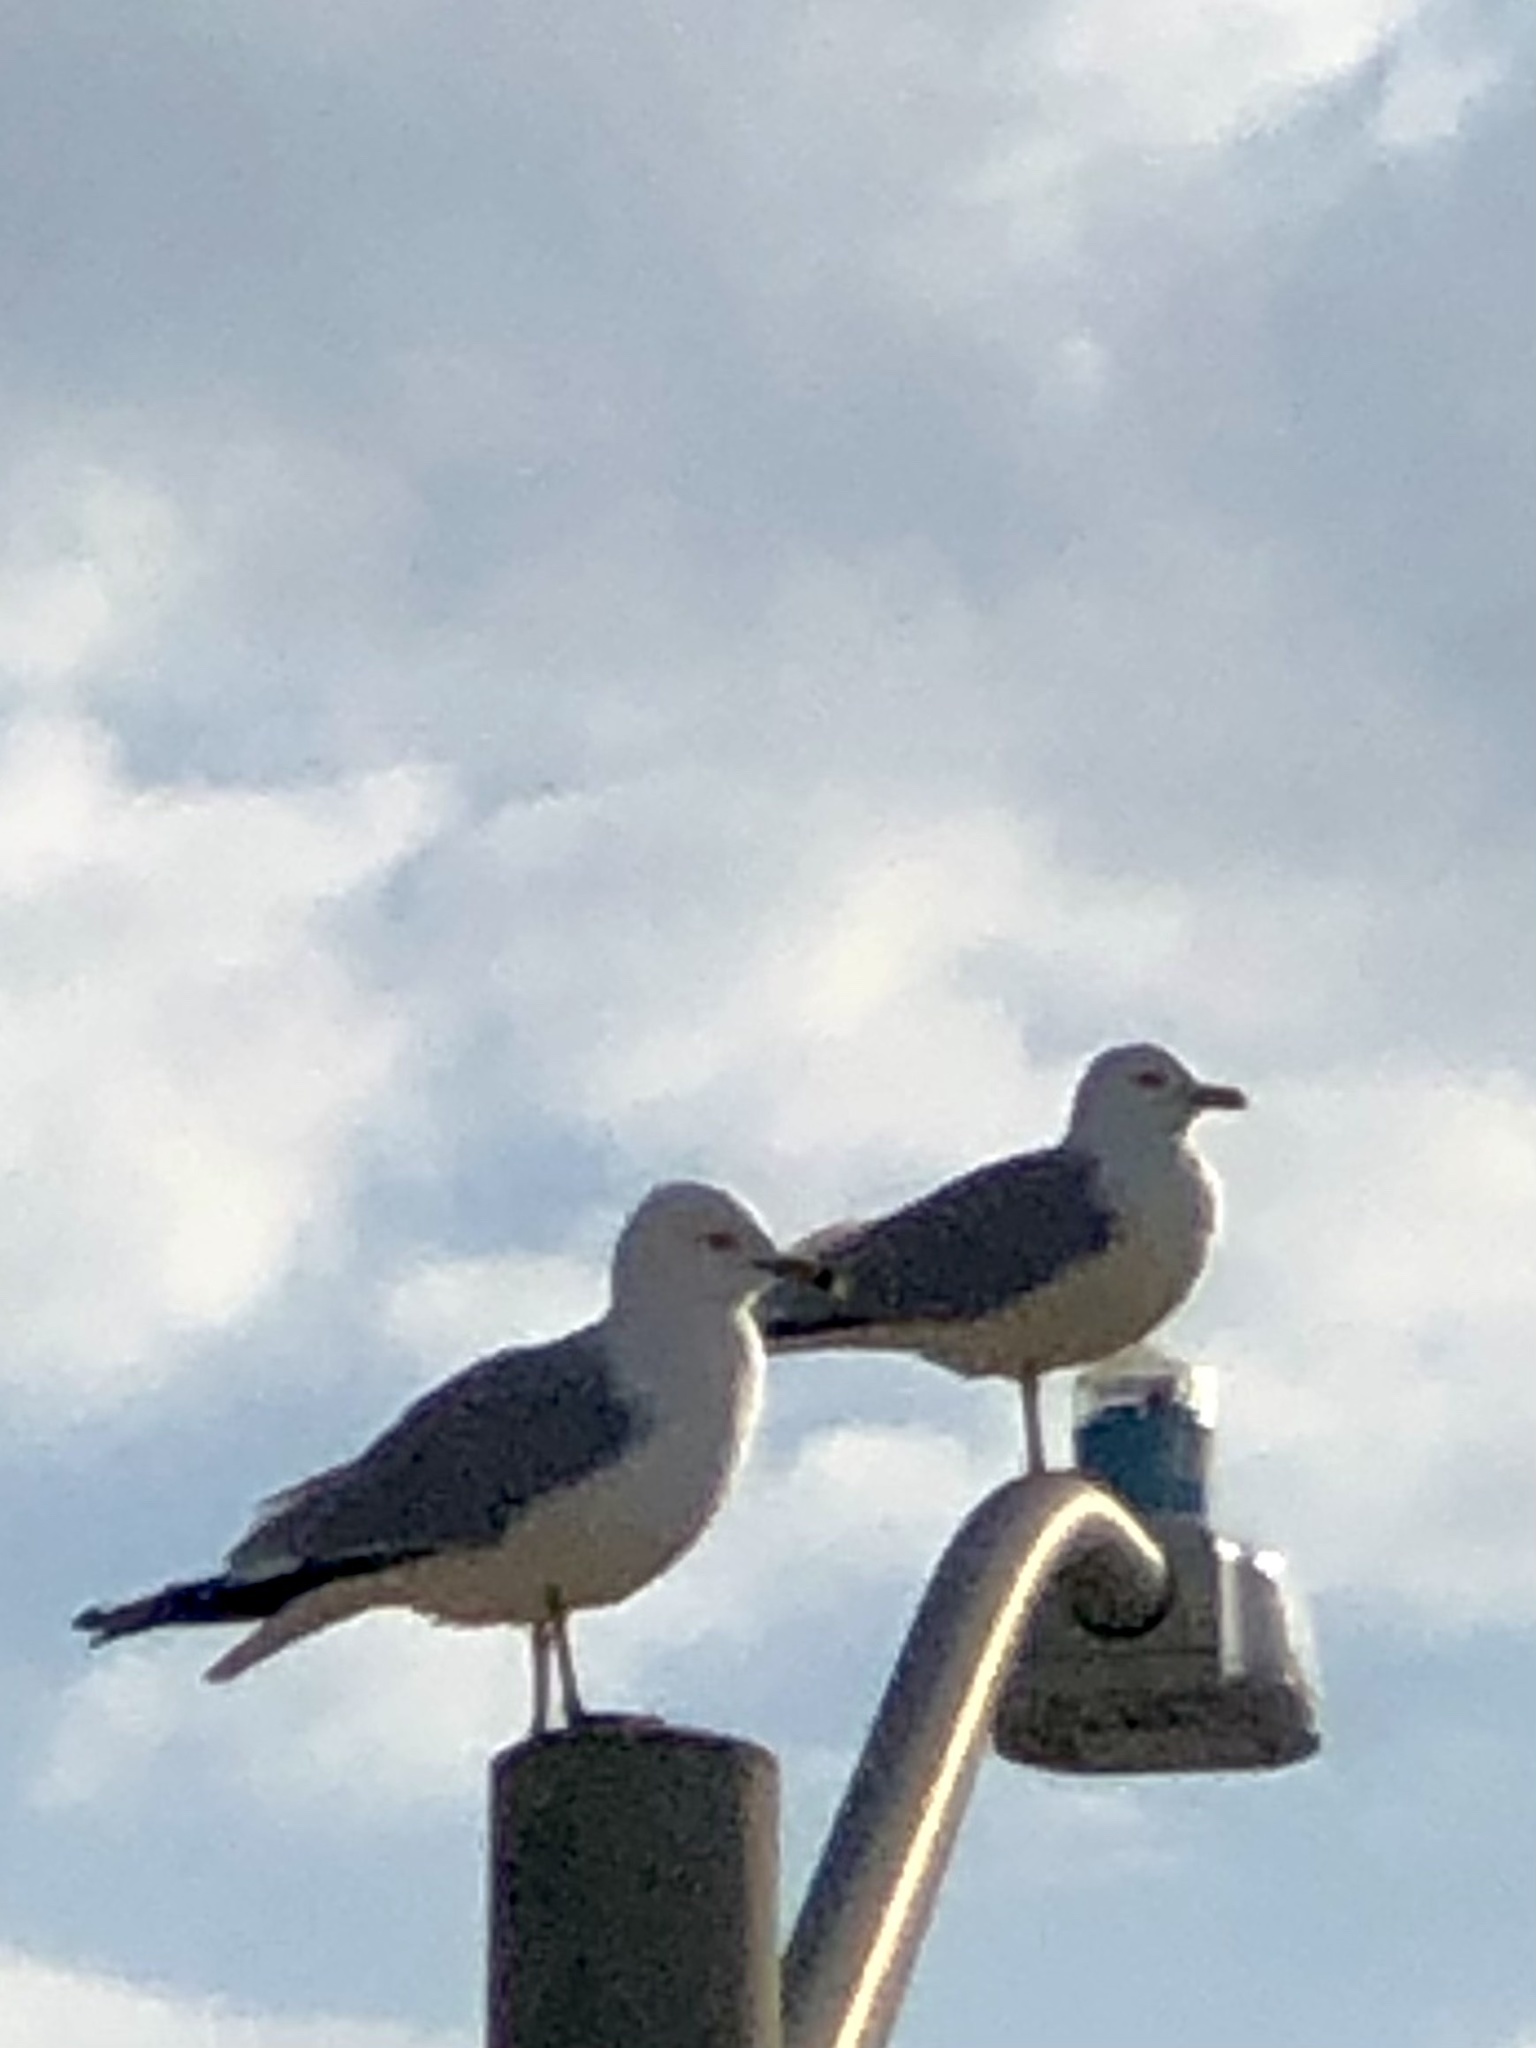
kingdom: Animalia
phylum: Chordata
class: Aves
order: Charadriiformes
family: Laridae
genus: Larus
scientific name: Larus delawarensis
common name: Ring-billed gull
